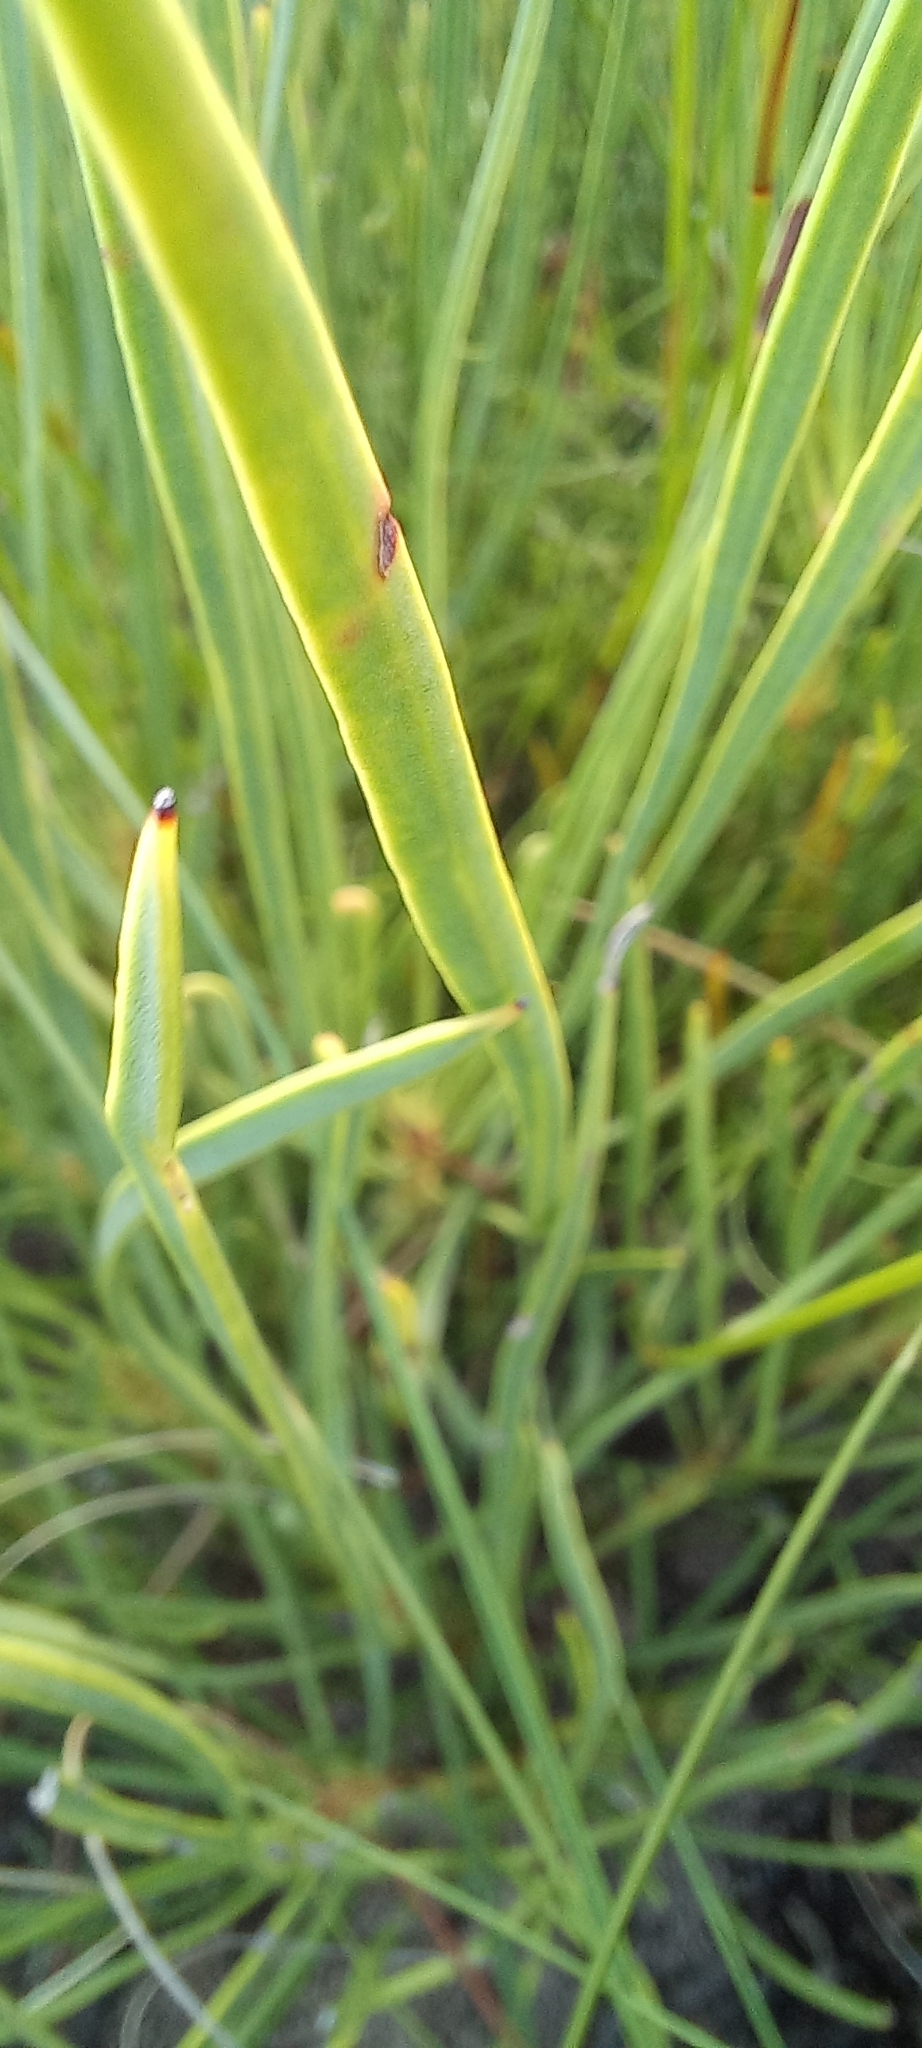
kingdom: Plantae
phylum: Tracheophyta
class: Magnoliopsida
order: Proteales
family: Proteaceae
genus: Protea
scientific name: Protea scabra
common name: Sandpaper-leaf sugarbush
